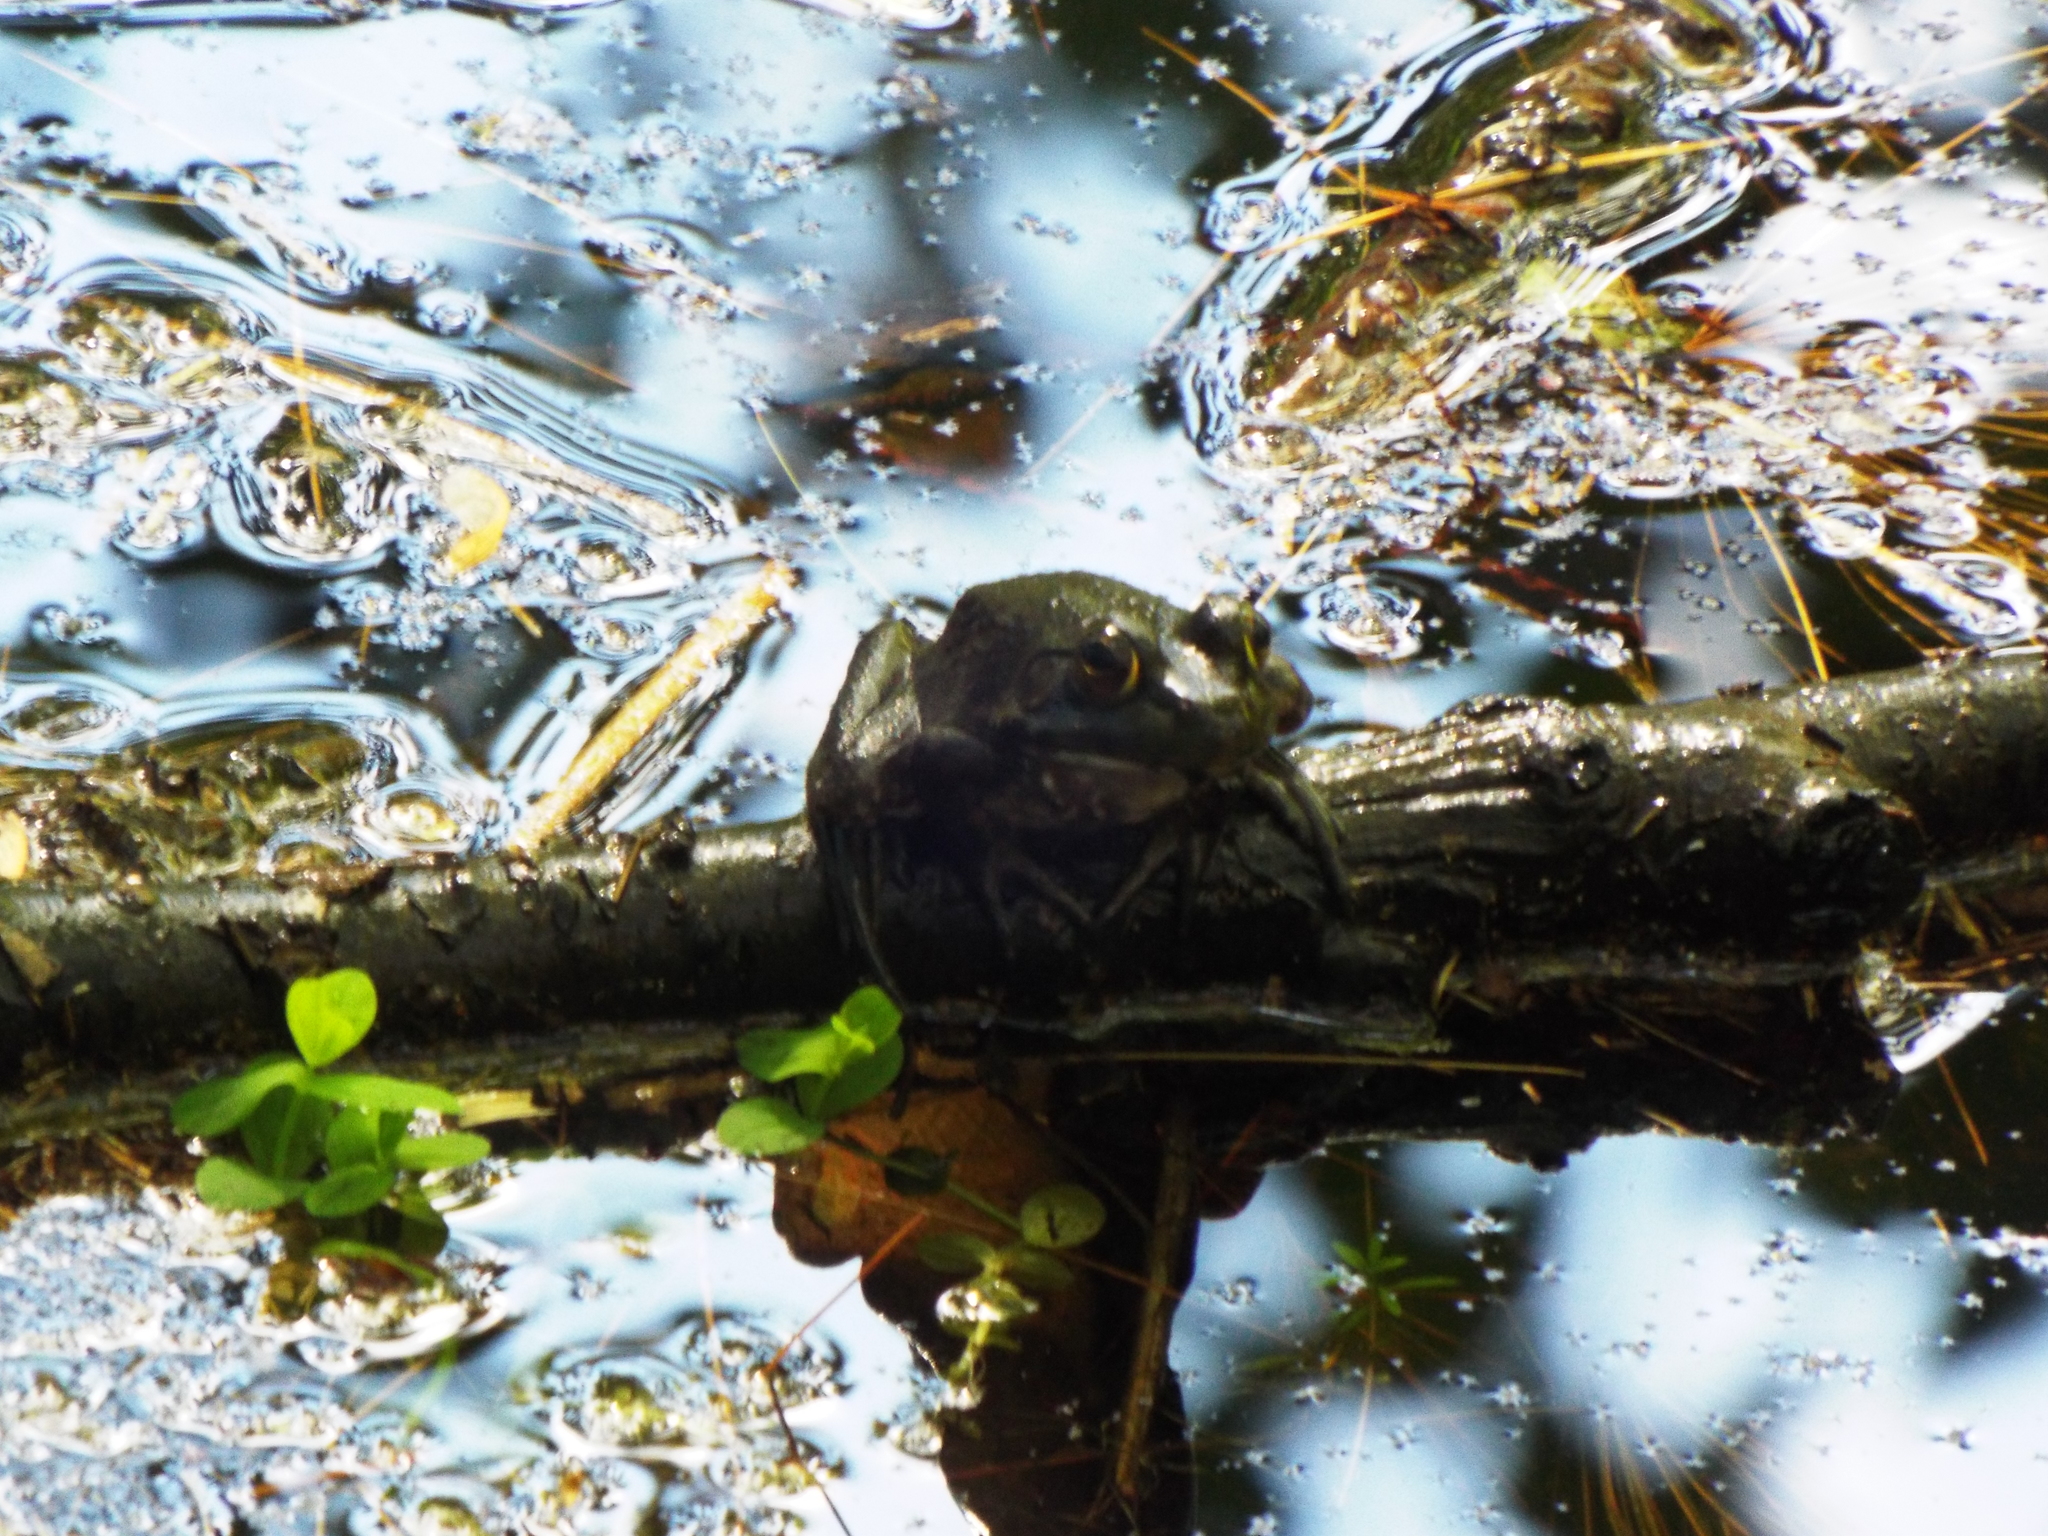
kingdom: Animalia
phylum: Chordata
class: Amphibia
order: Anura
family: Ranidae
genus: Lithobates
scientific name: Lithobates catesbeianus
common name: American bullfrog
